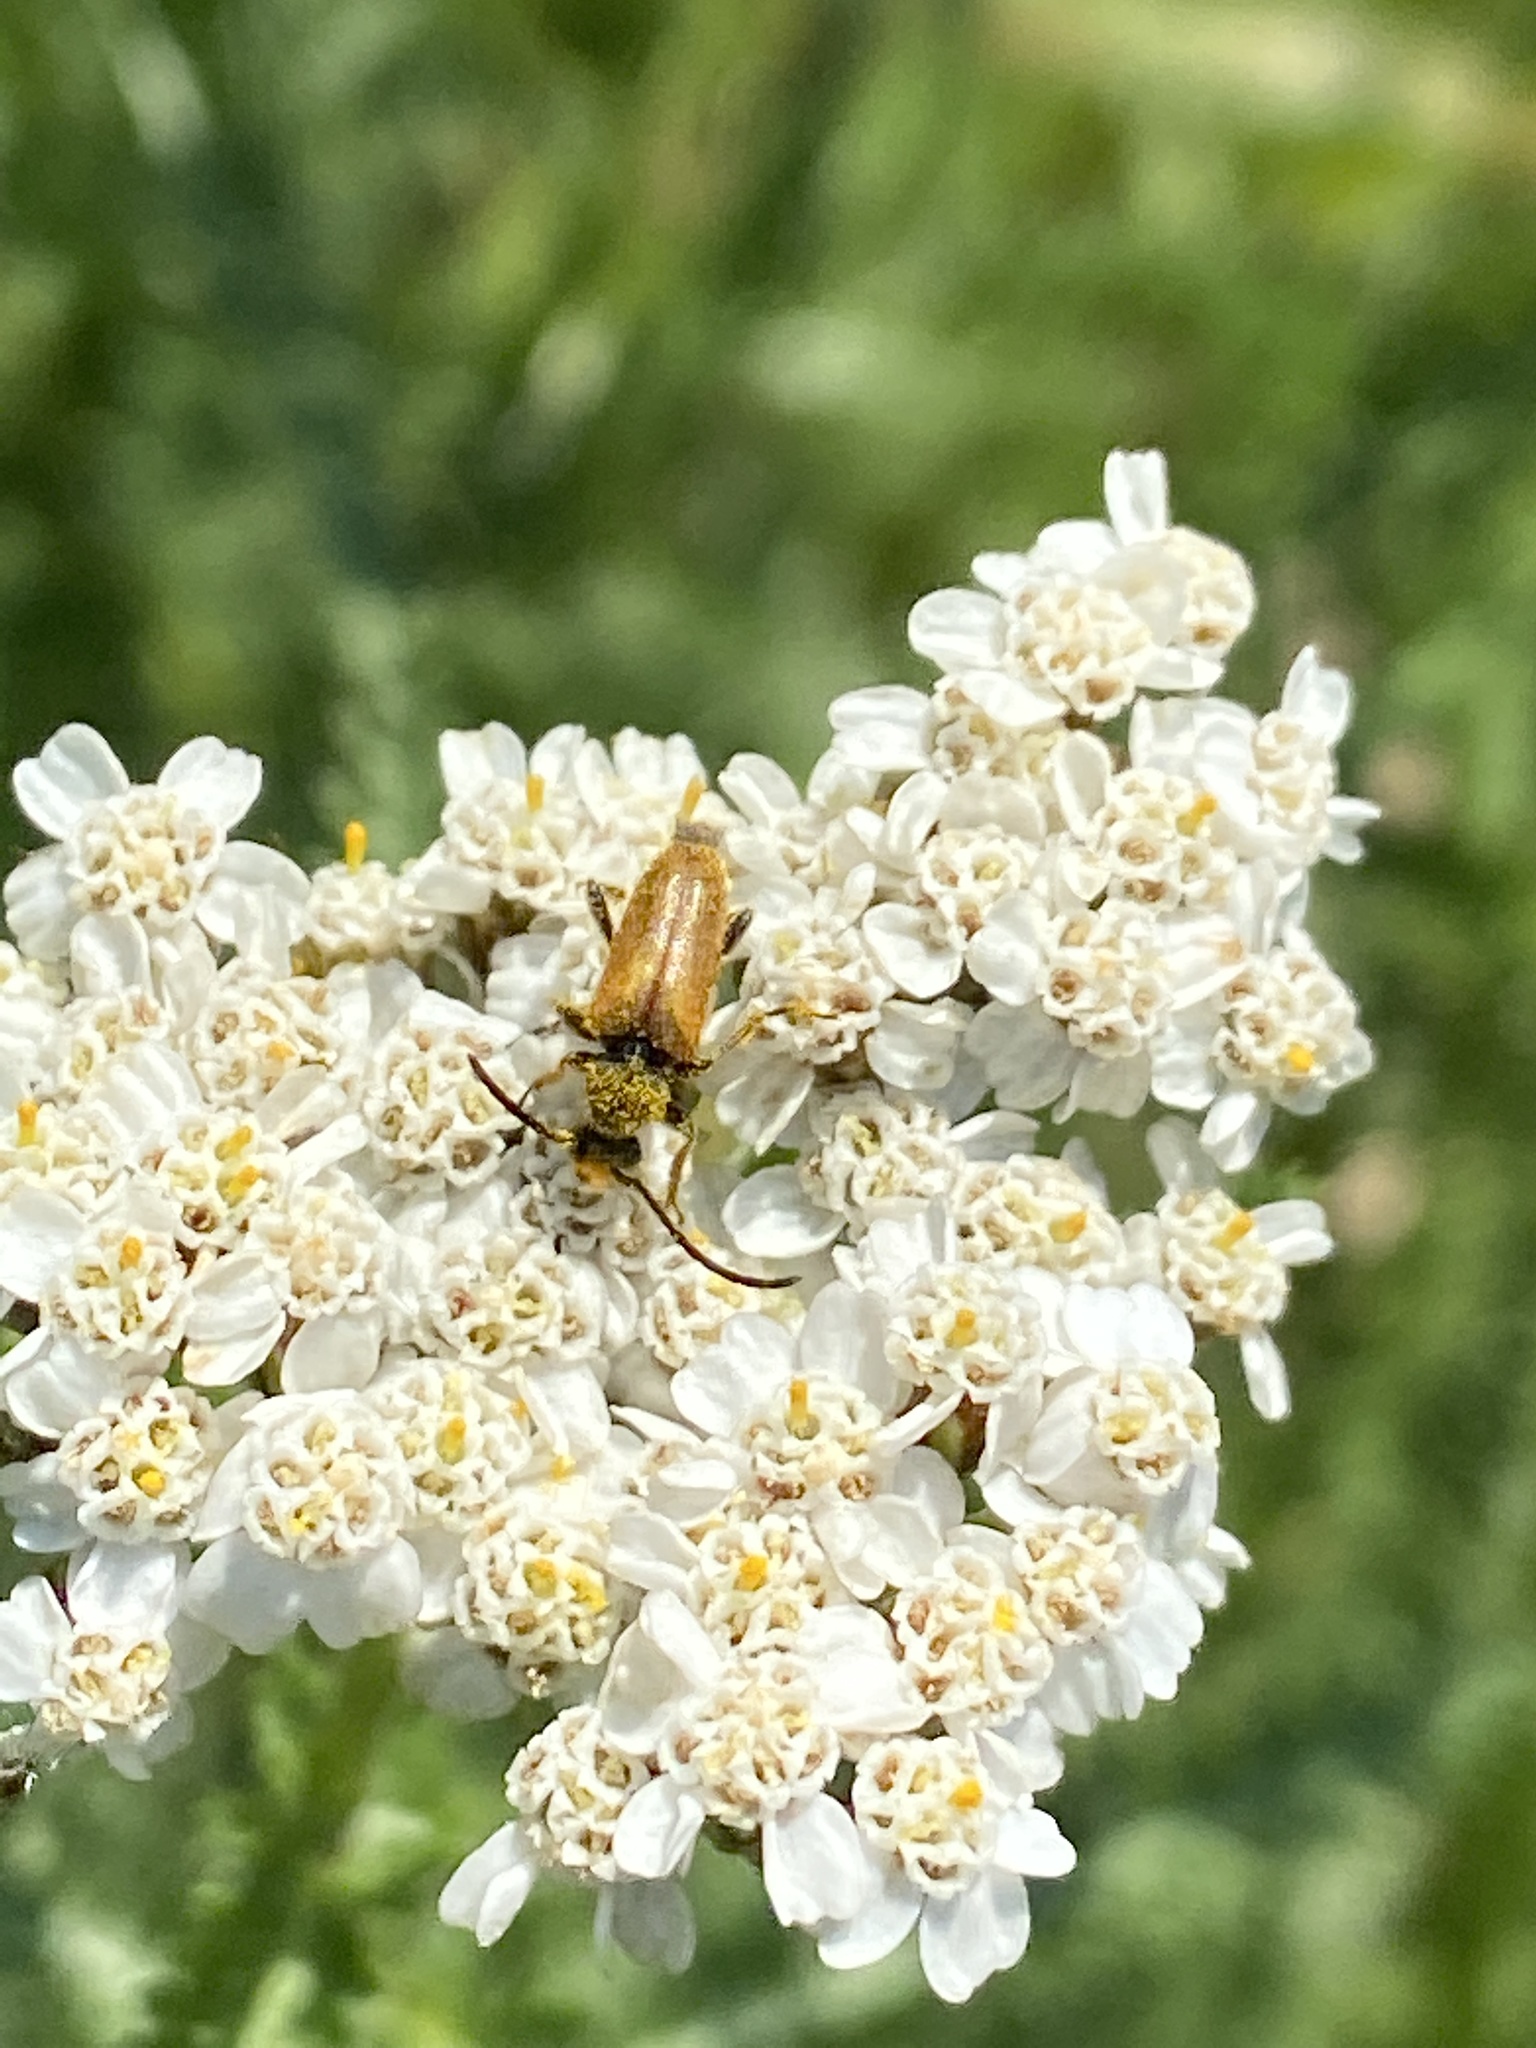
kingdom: Animalia
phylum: Arthropoda
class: Insecta
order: Coleoptera
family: Cerambycidae
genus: Pseudovadonia
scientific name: Pseudovadonia livida
